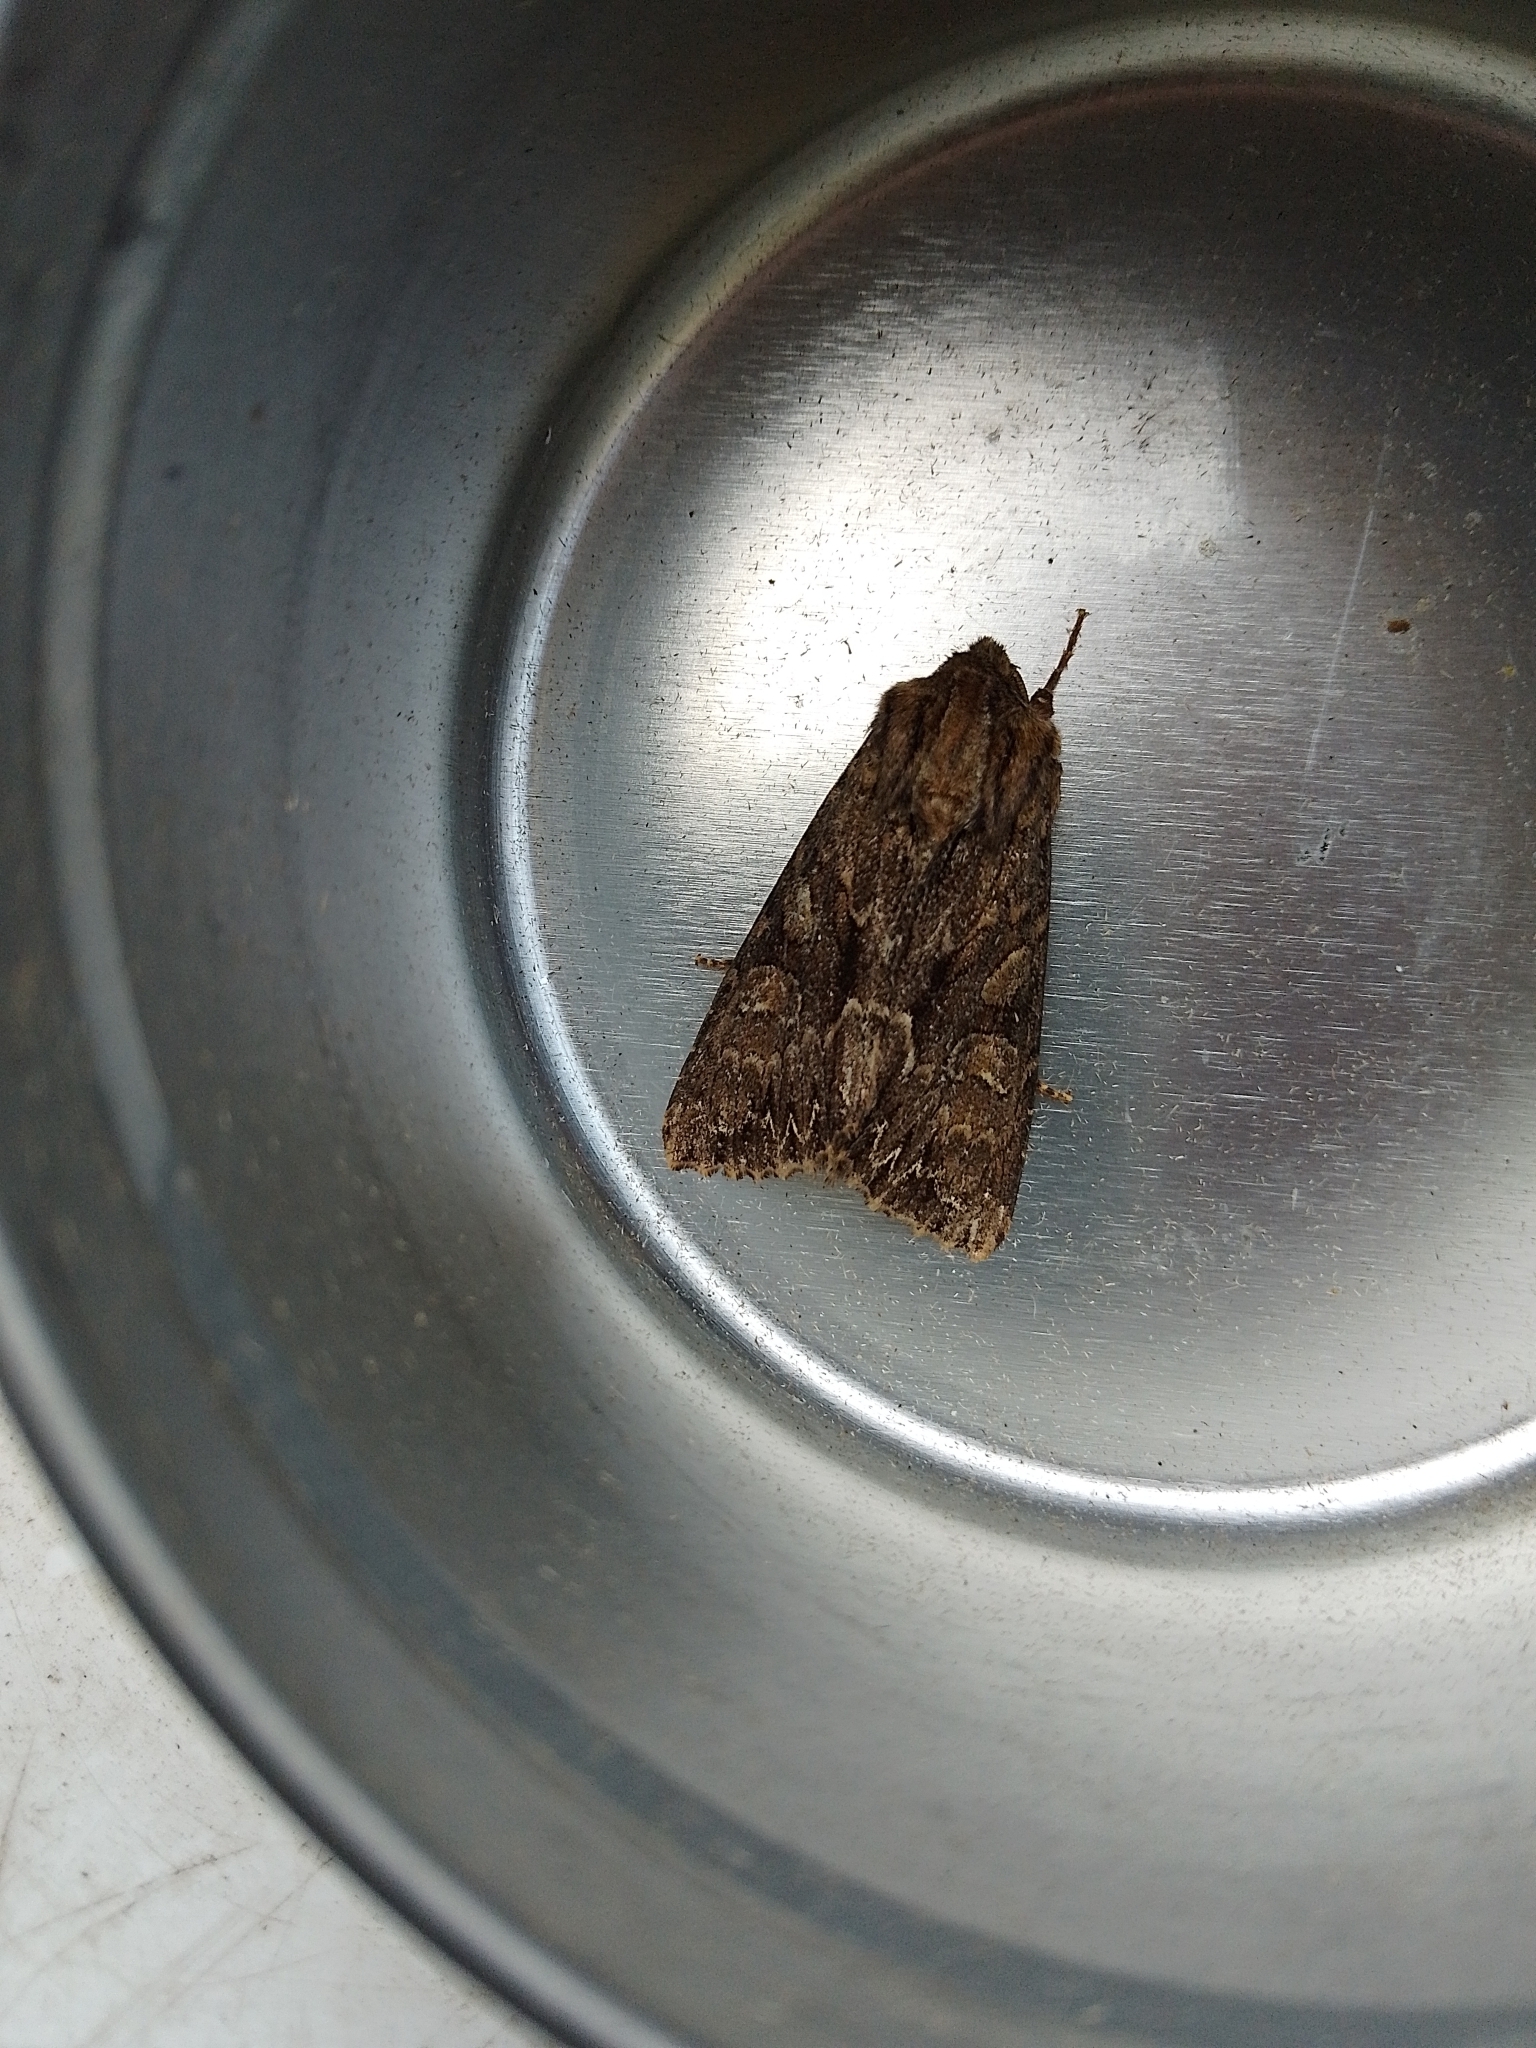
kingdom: Animalia
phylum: Arthropoda
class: Insecta
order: Lepidoptera
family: Noctuidae
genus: Apamea
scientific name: Apamea monoglypha
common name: Dark arches
